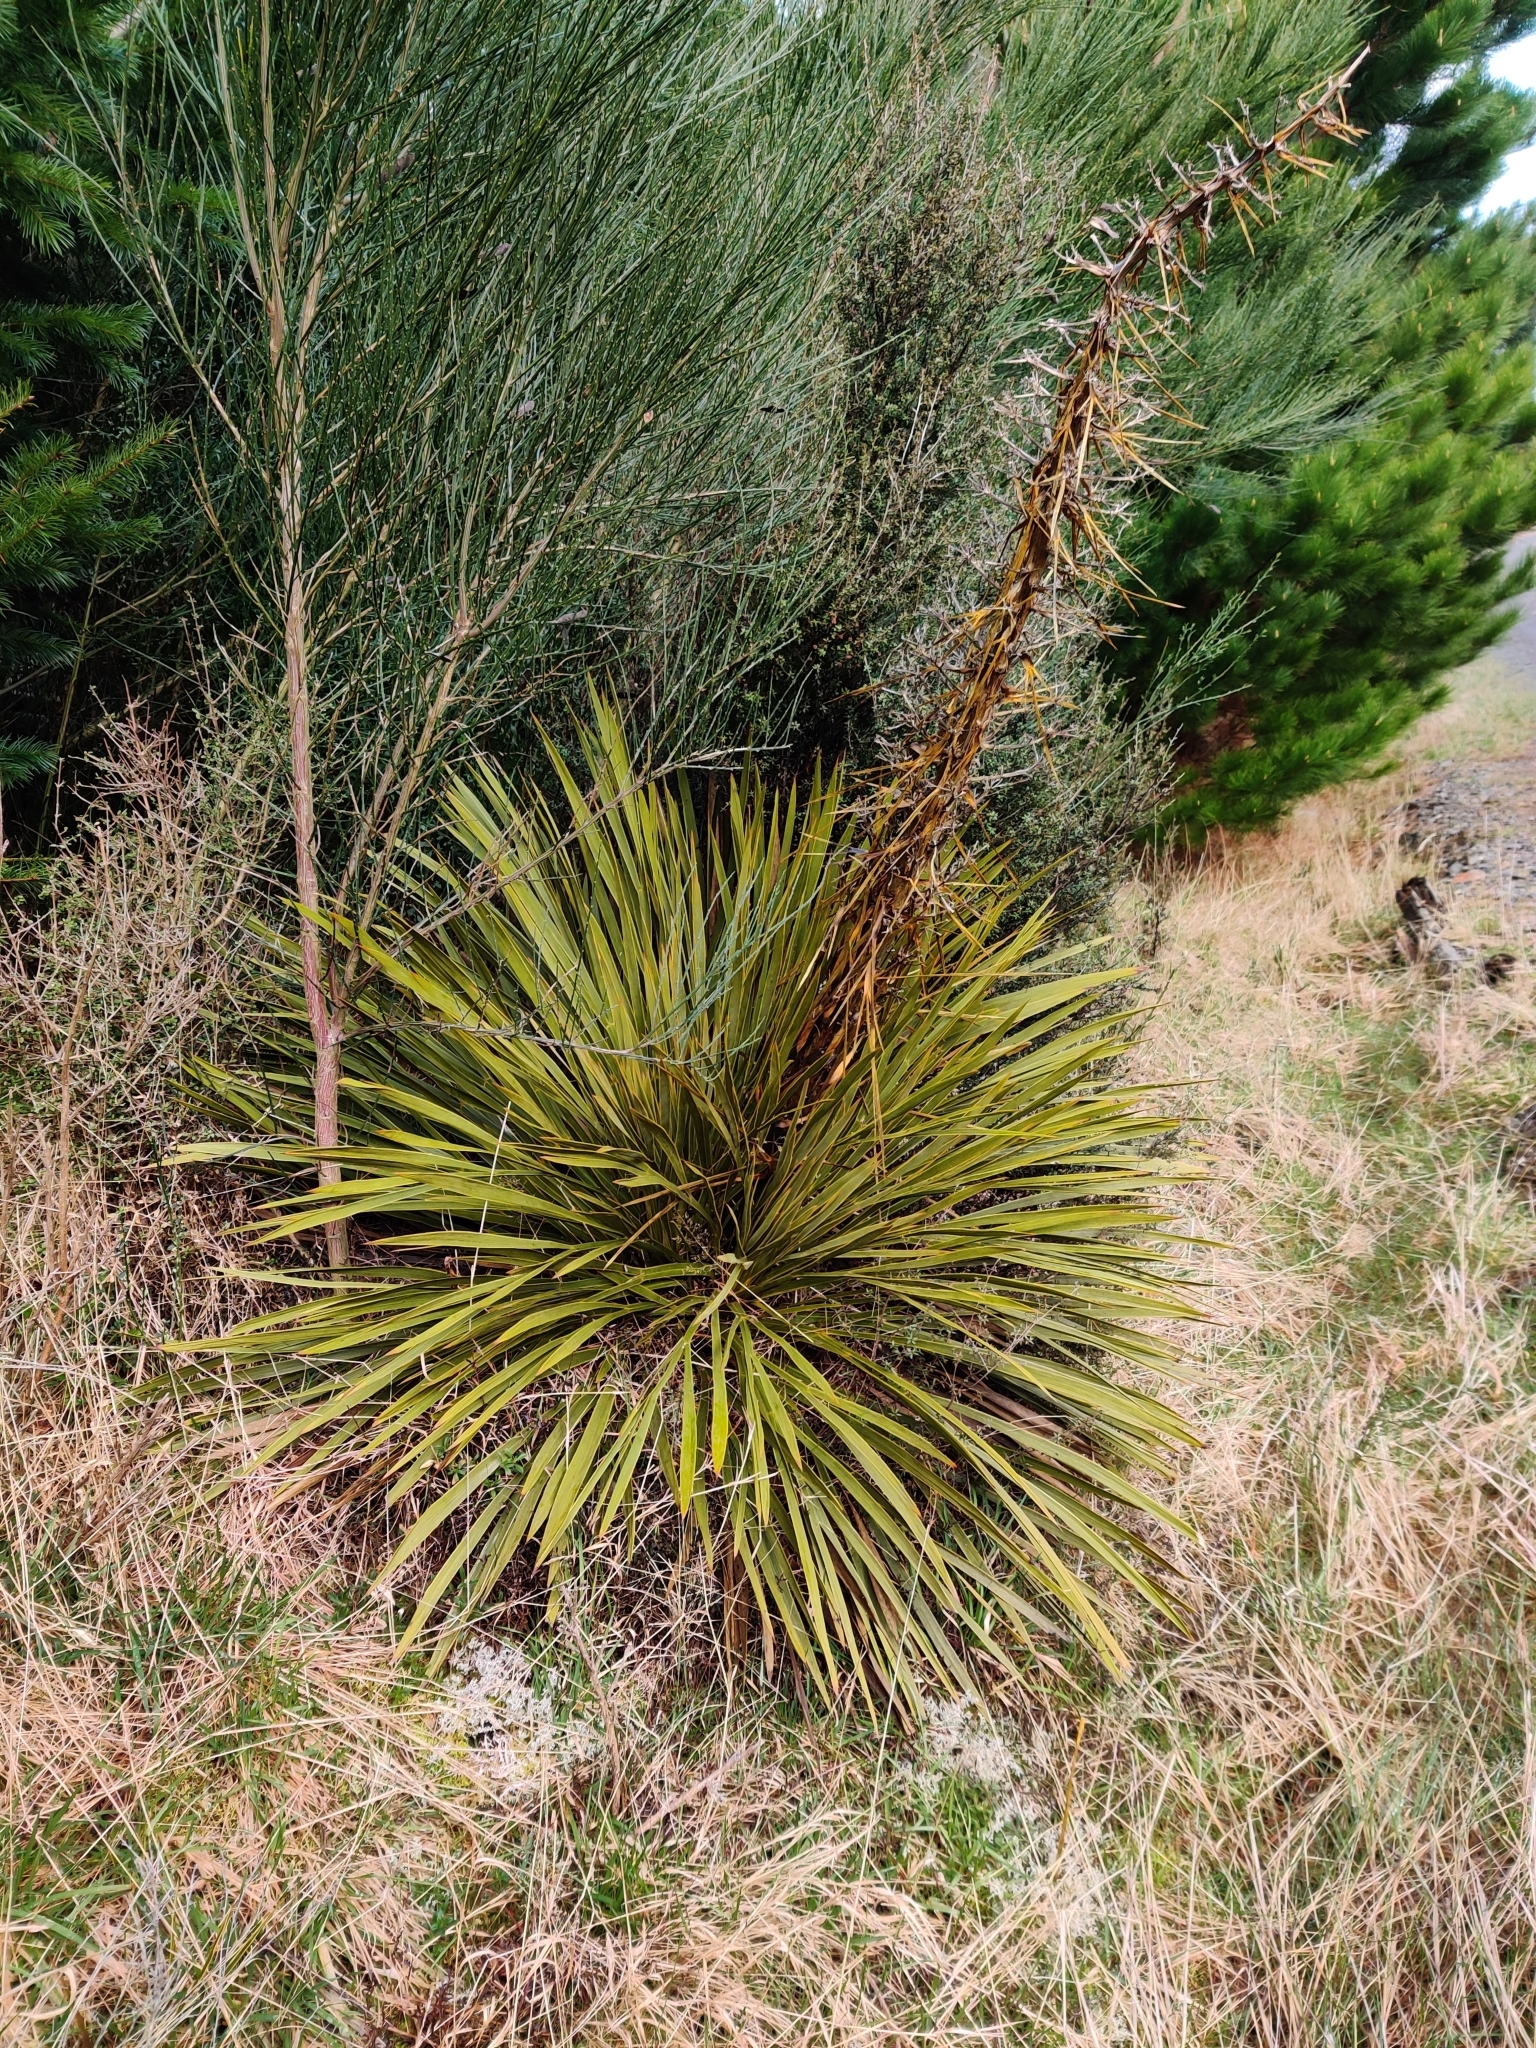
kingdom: Plantae
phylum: Tracheophyta
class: Magnoliopsida
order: Apiales
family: Apiaceae
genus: Aciphylla
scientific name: Aciphylla aurea
